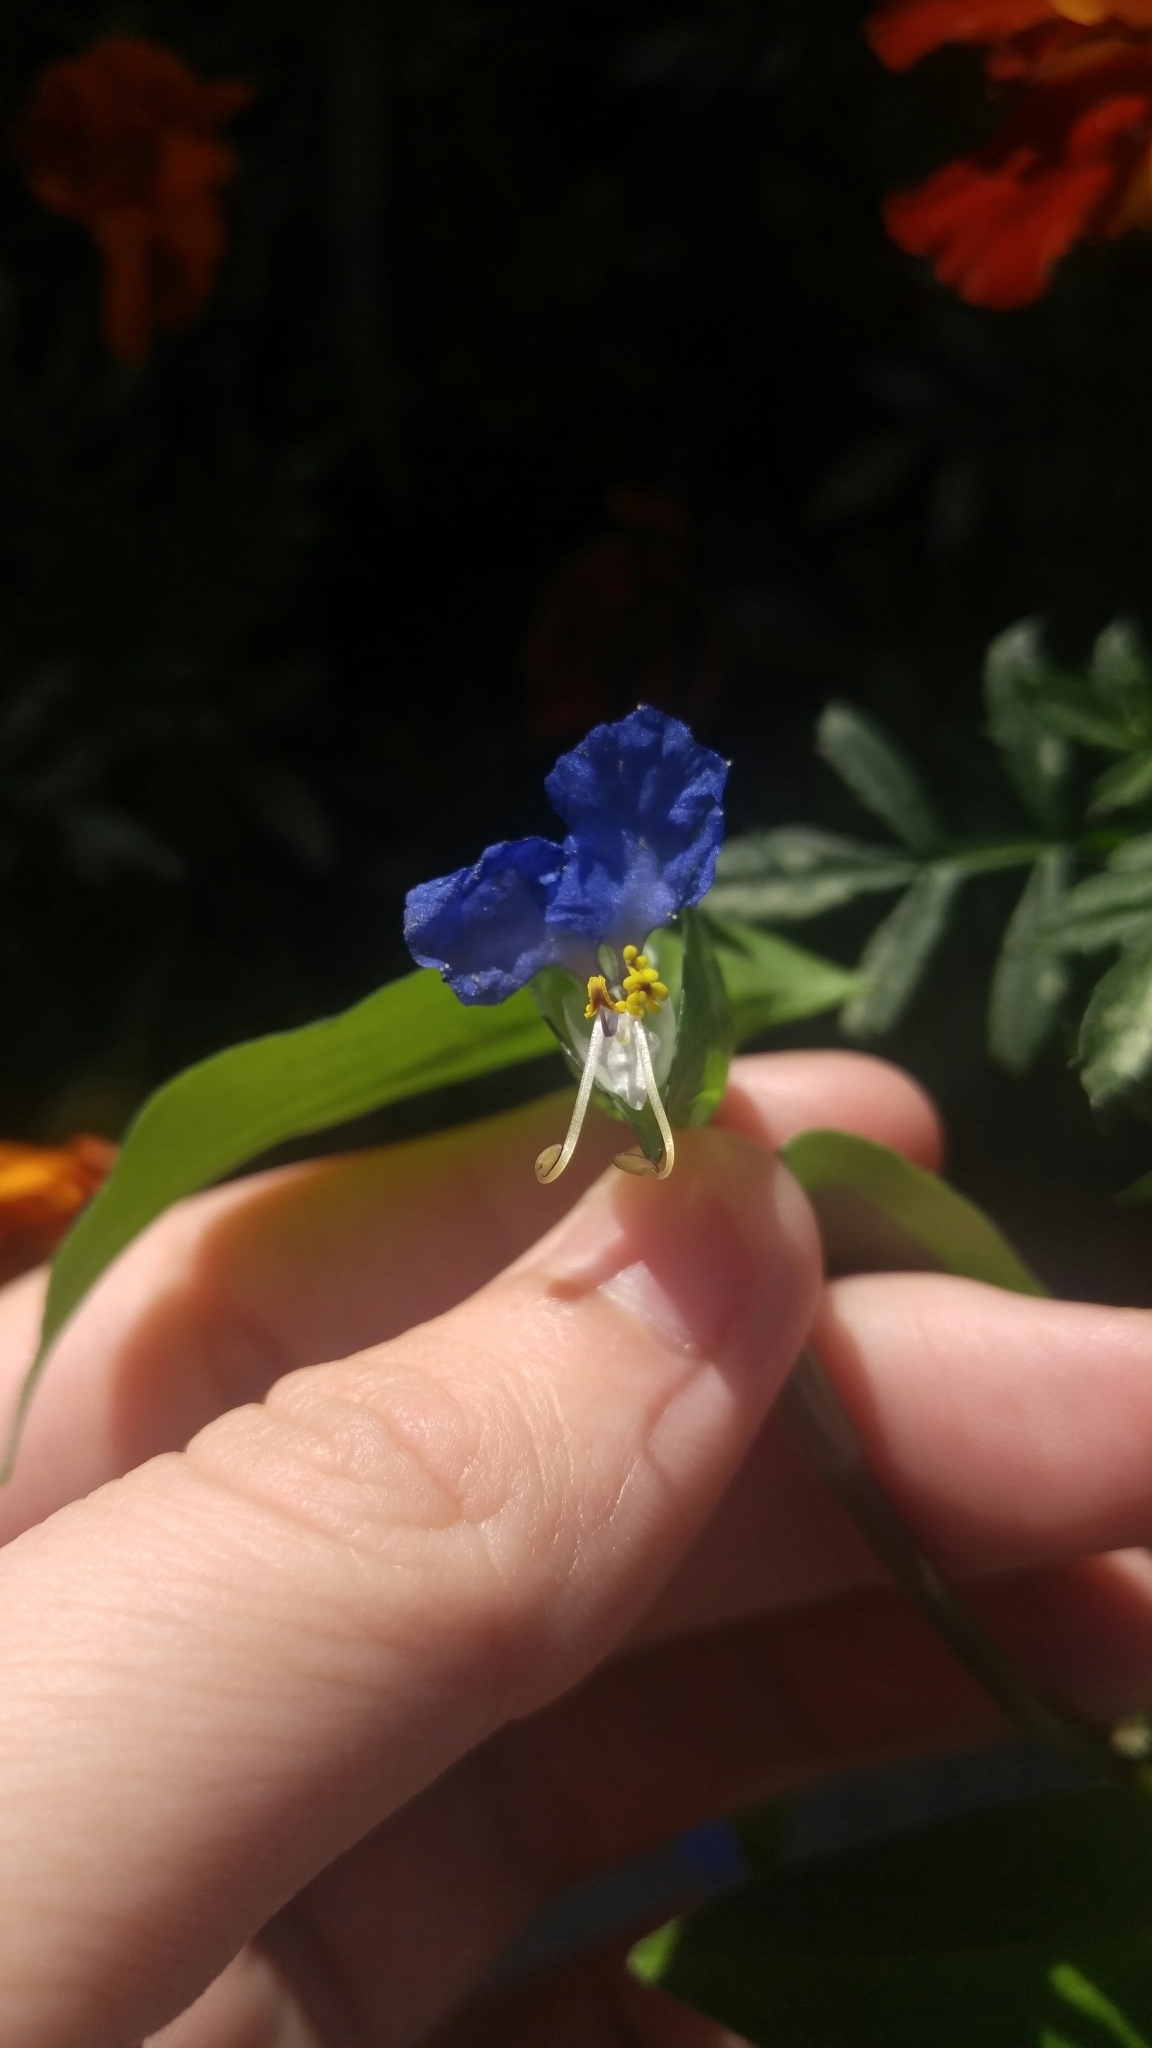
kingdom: Plantae
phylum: Tracheophyta
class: Liliopsida
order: Commelinales
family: Commelinaceae
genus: Commelina
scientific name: Commelina communis
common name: Asiatic dayflower
